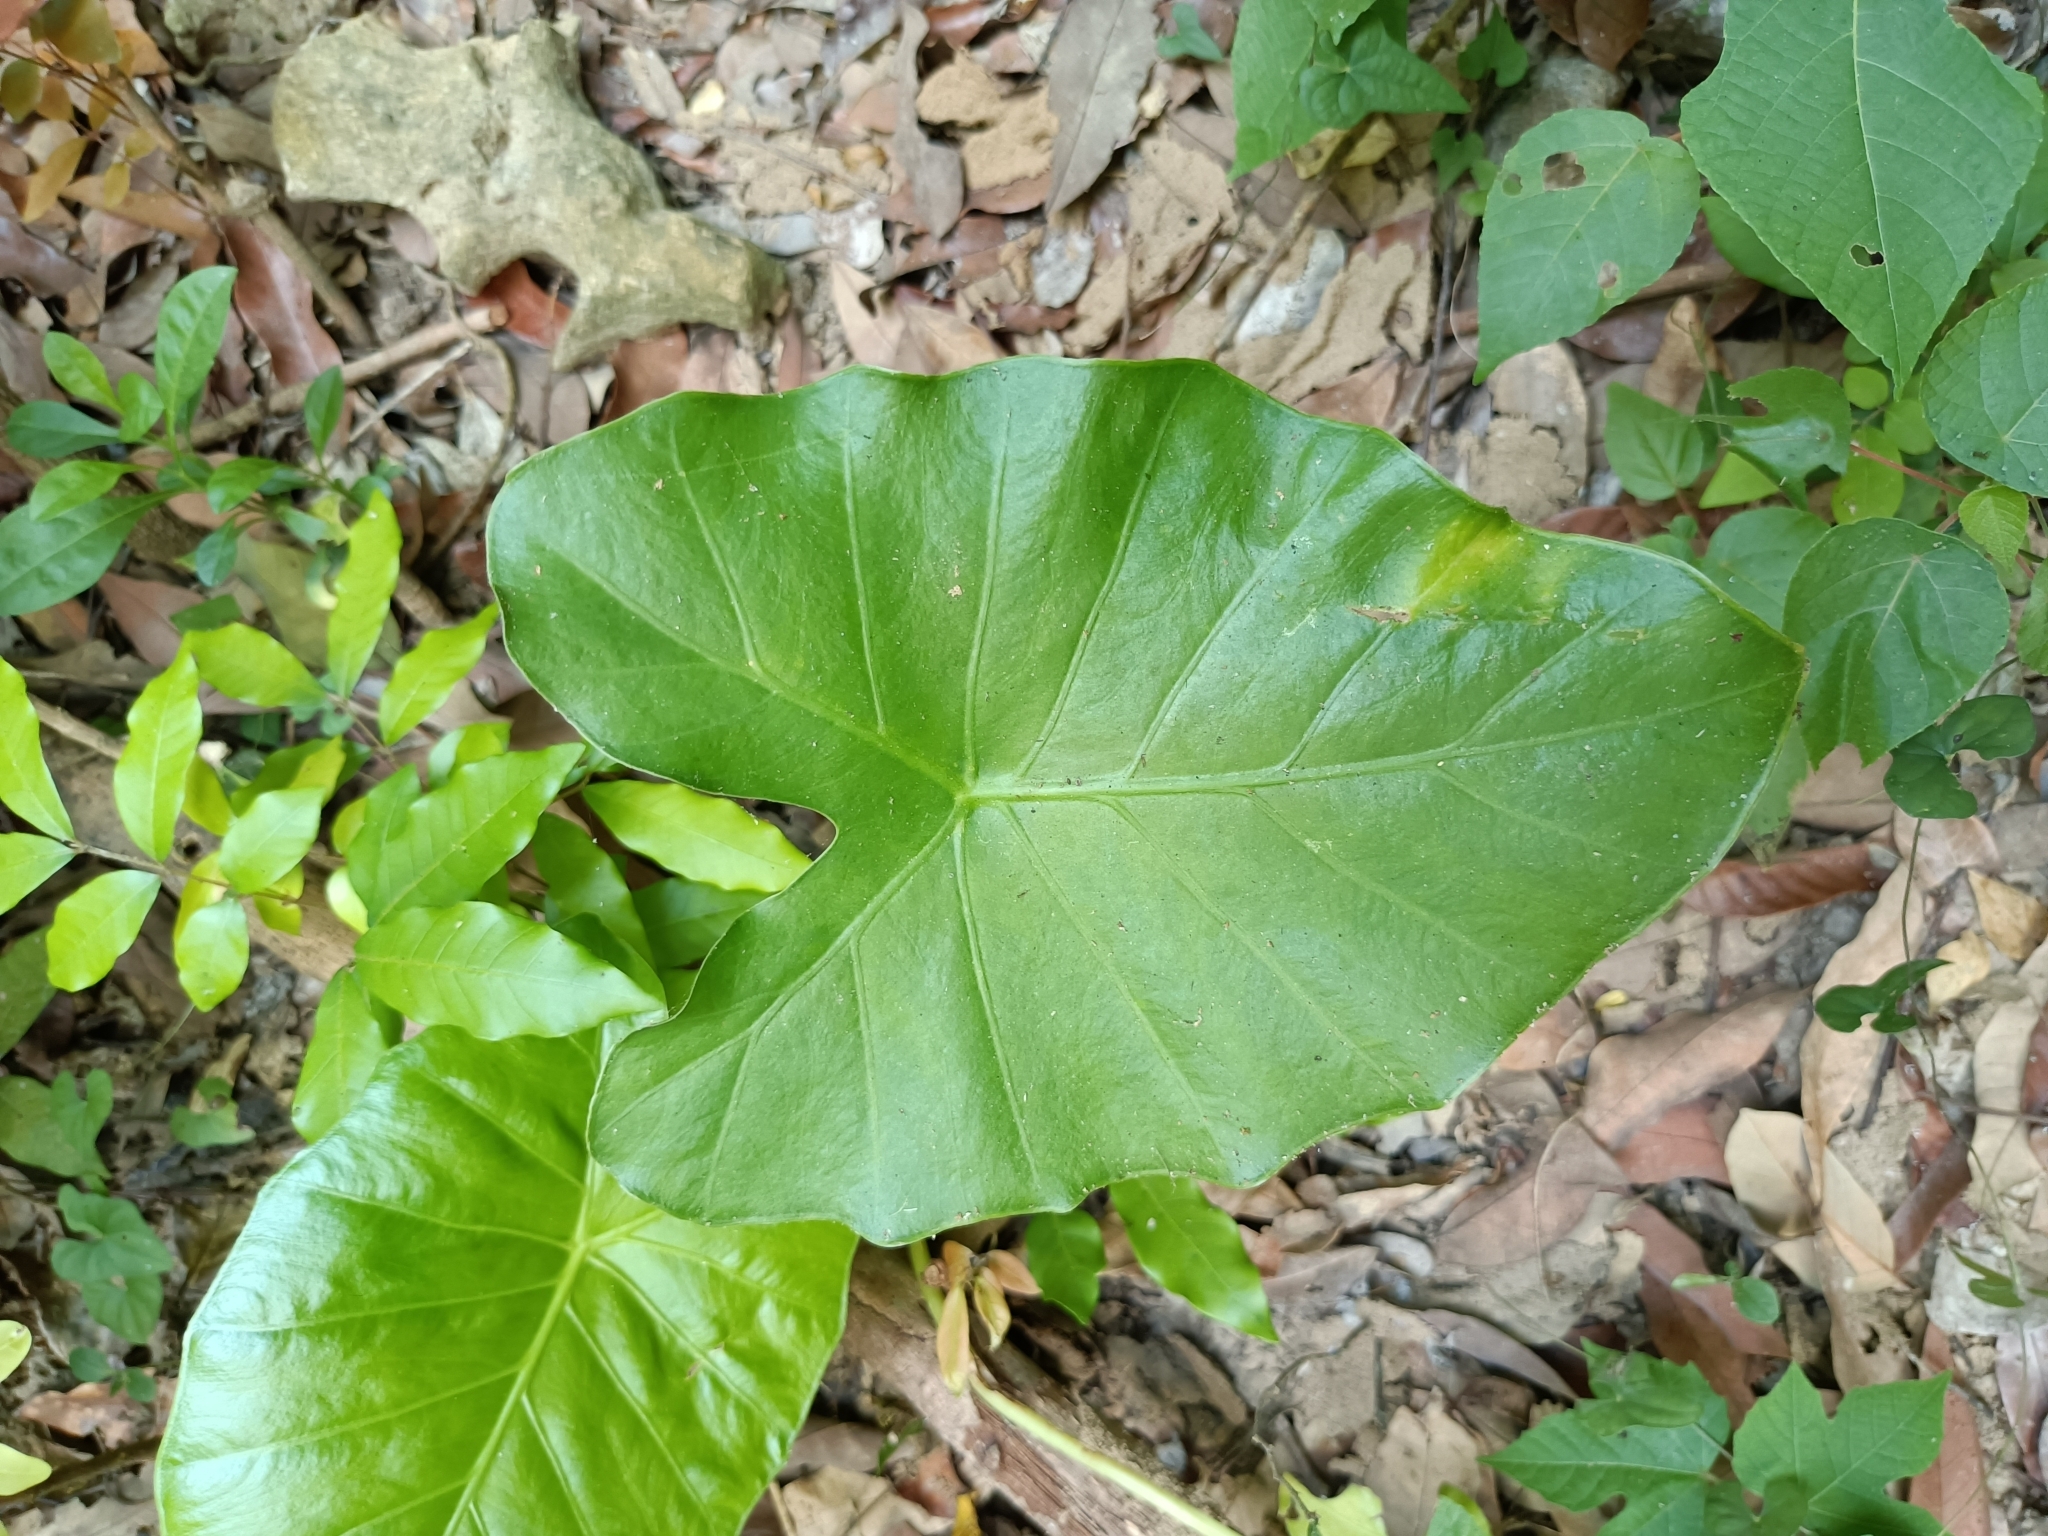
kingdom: Plantae
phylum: Tracheophyta
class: Liliopsida
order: Alismatales
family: Araceae
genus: Alocasia
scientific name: Alocasia odora
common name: Asian taro
